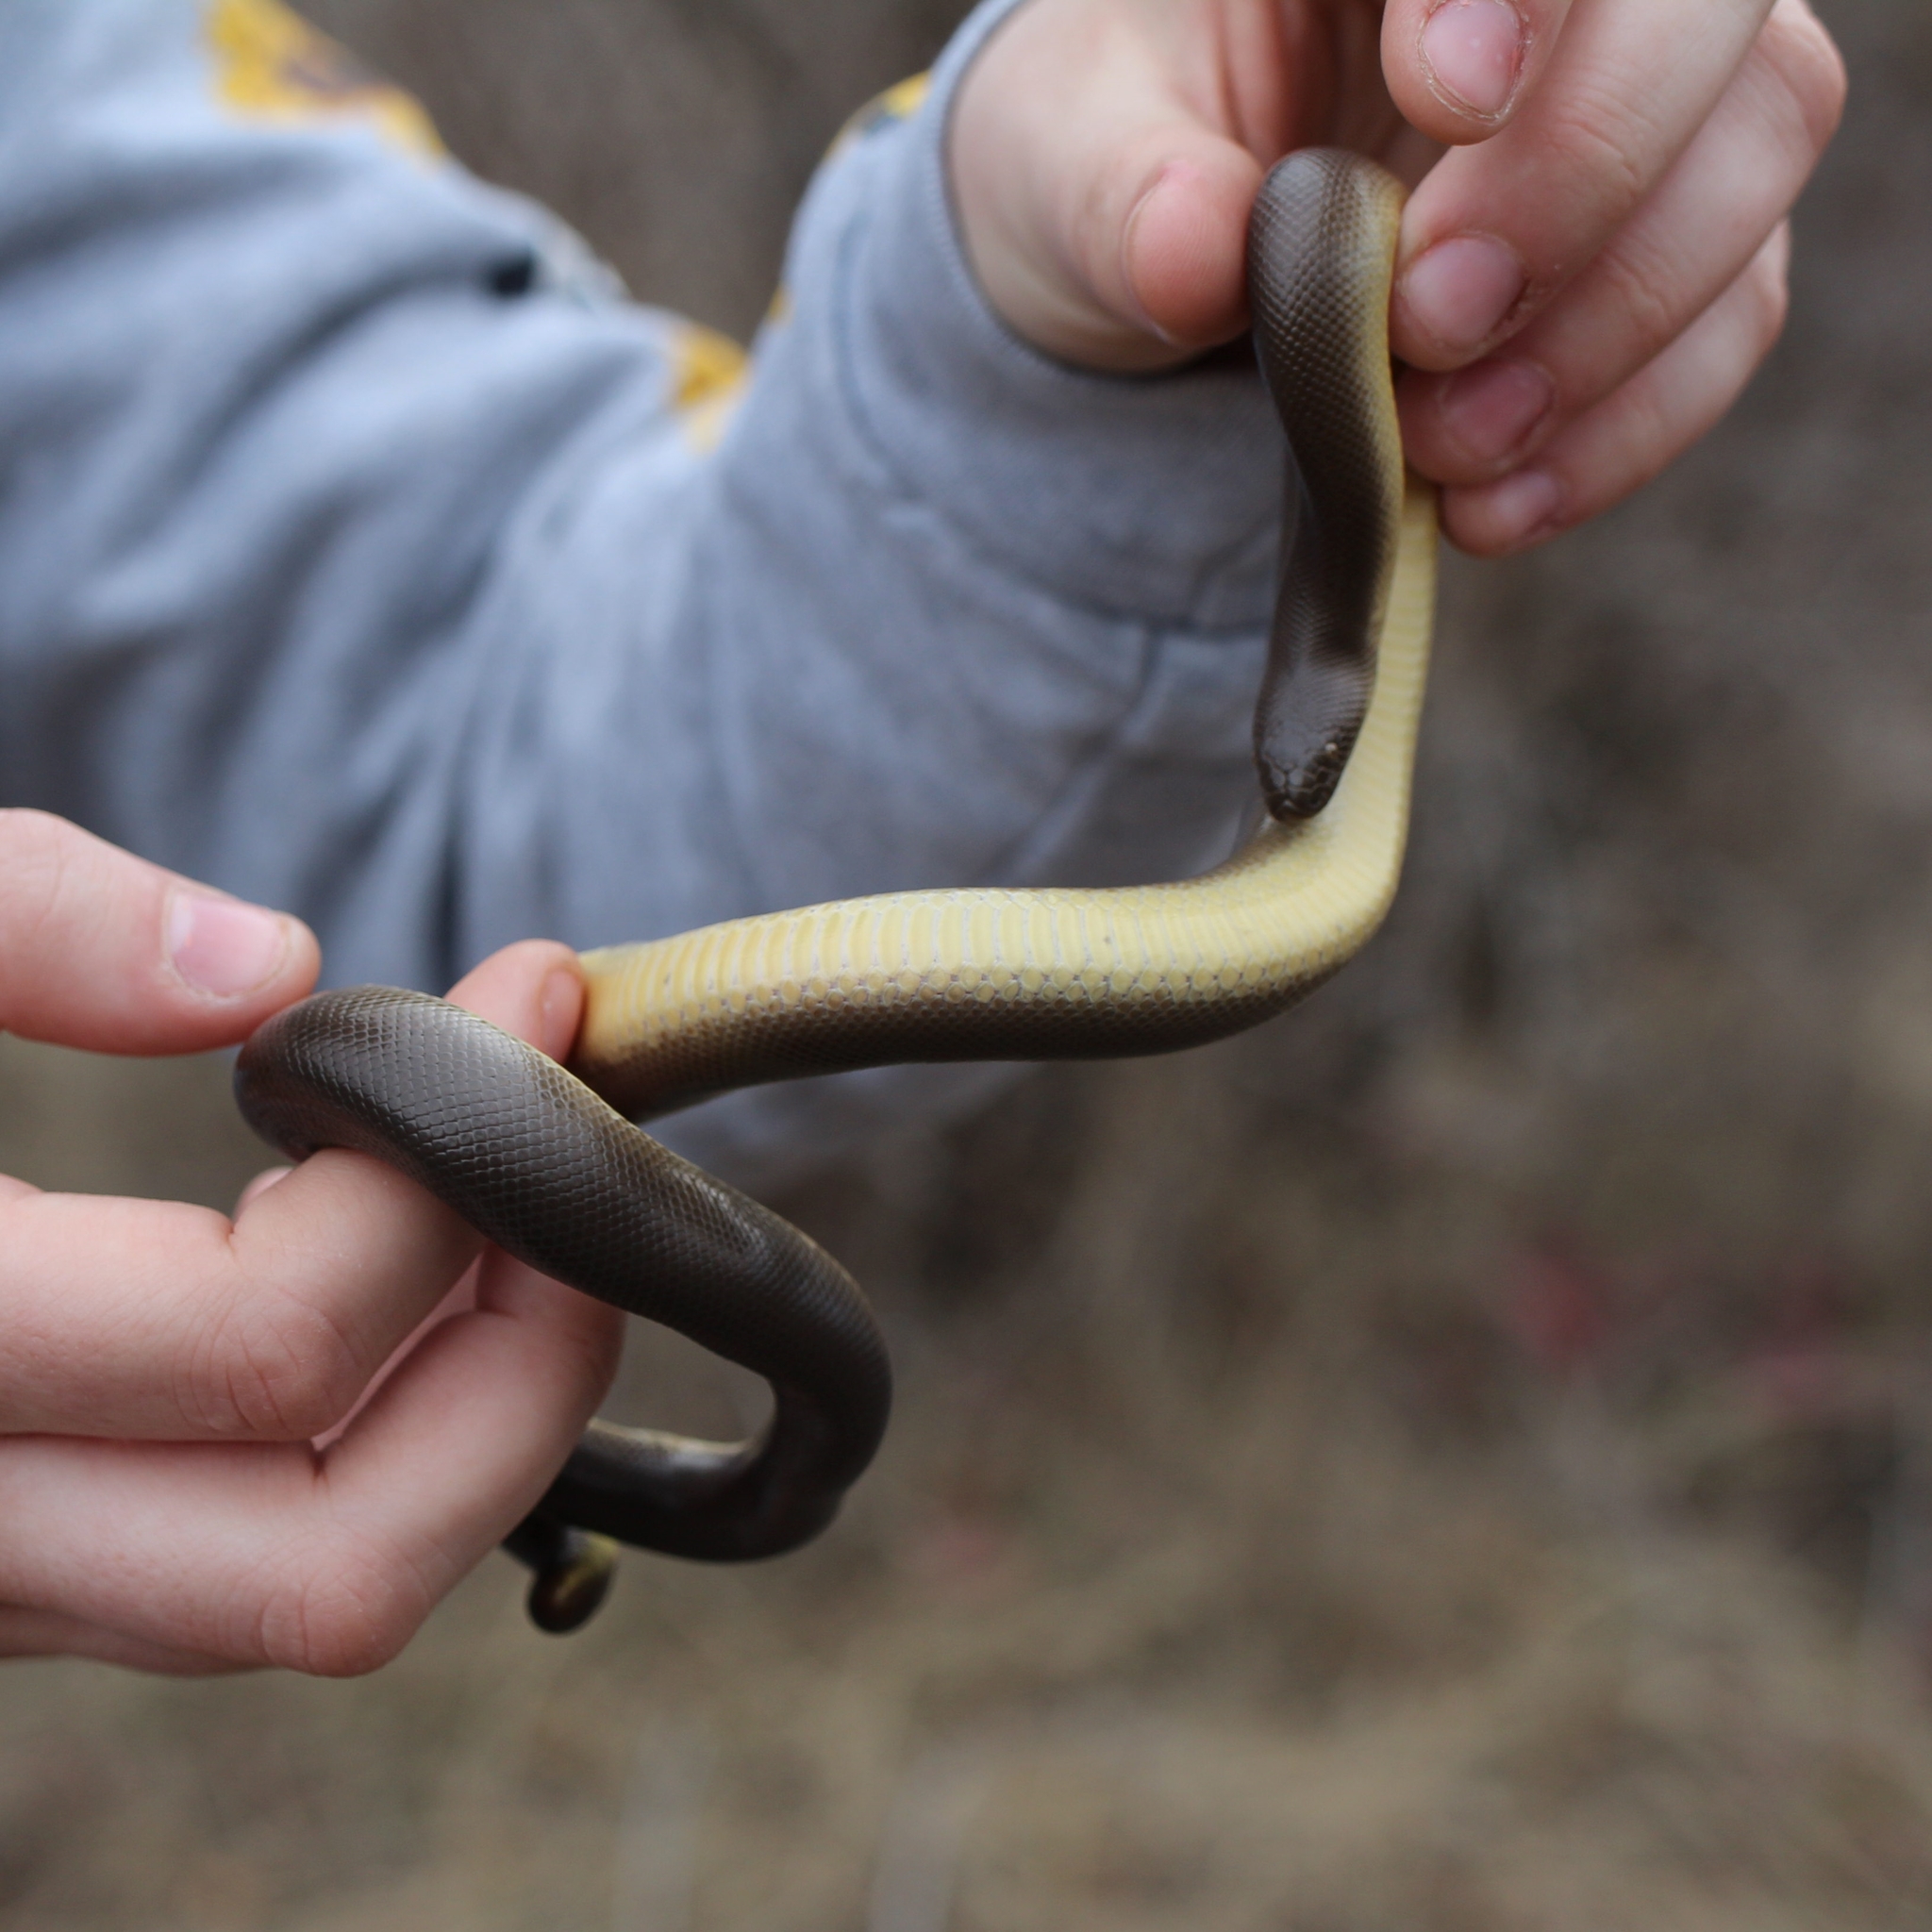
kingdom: Animalia
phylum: Chordata
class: Squamata
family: Boidae
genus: Charina
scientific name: Charina bottae
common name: Northern rubber boa
